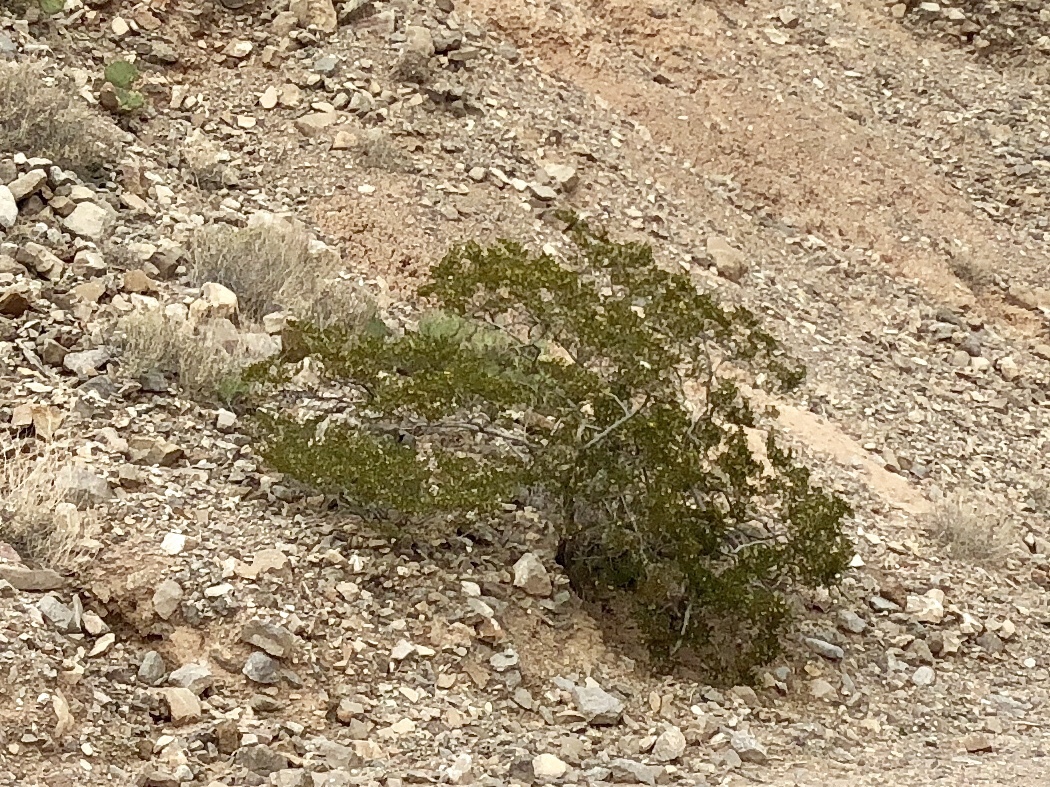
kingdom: Plantae
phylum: Tracheophyta
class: Magnoliopsida
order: Zygophyllales
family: Zygophyllaceae
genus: Larrea
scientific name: Larrea tridentata
